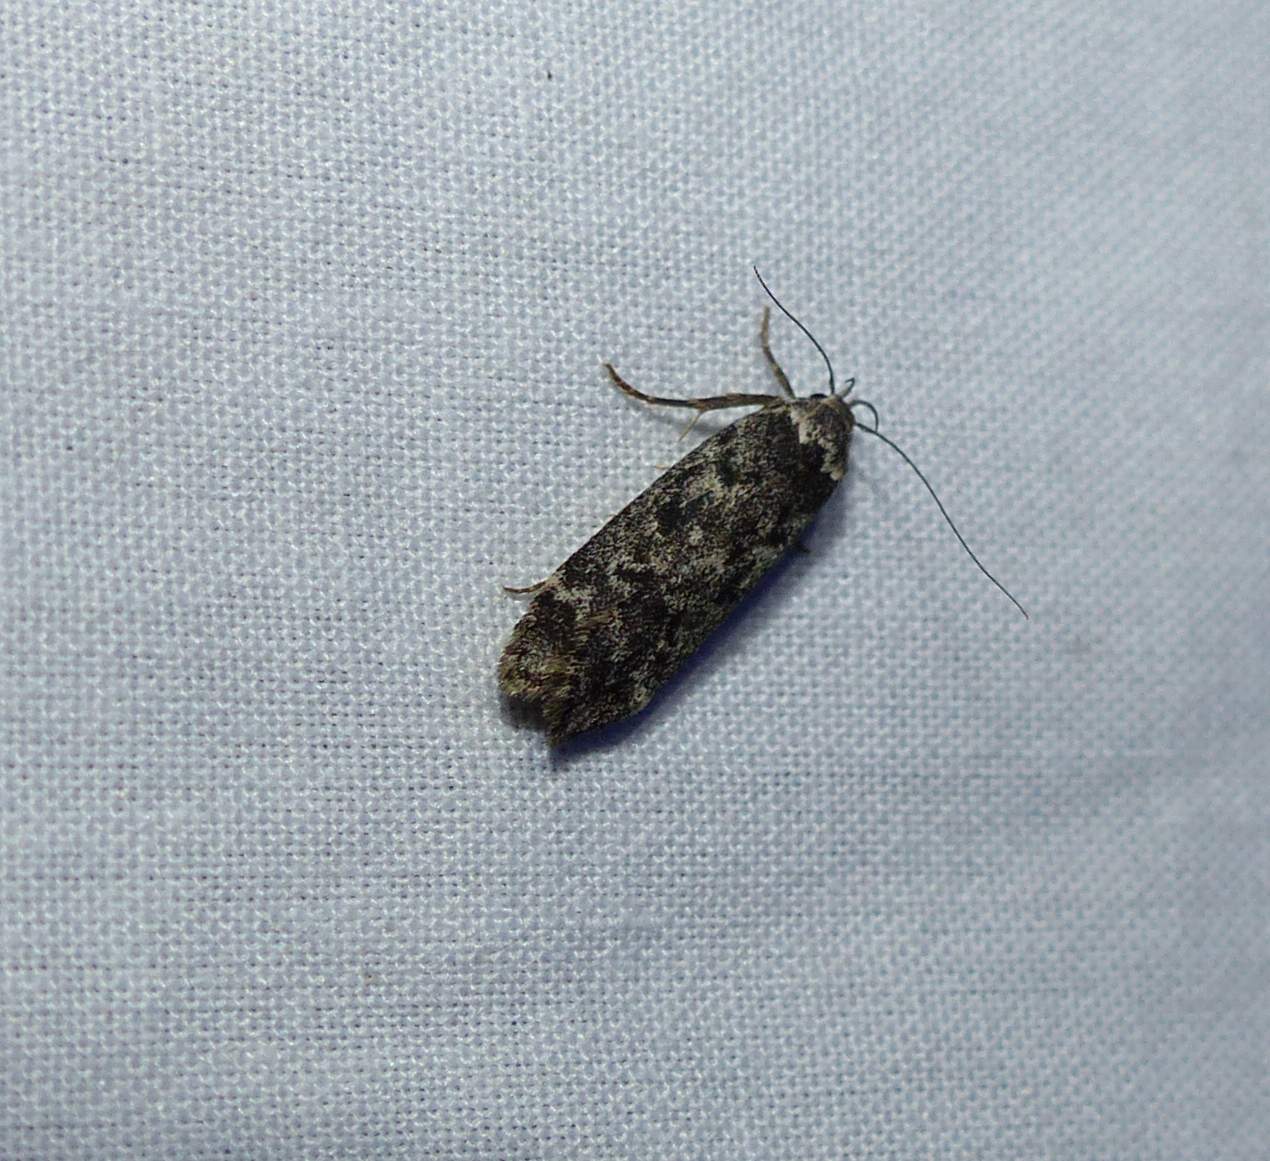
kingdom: Animalia
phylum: Arthropoda
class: Insecta
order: Lepidoptera
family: Gelechiidae
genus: Anacampsis
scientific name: Anacampsis niveopulvella
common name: Pale-headed aspen leafroller moth
